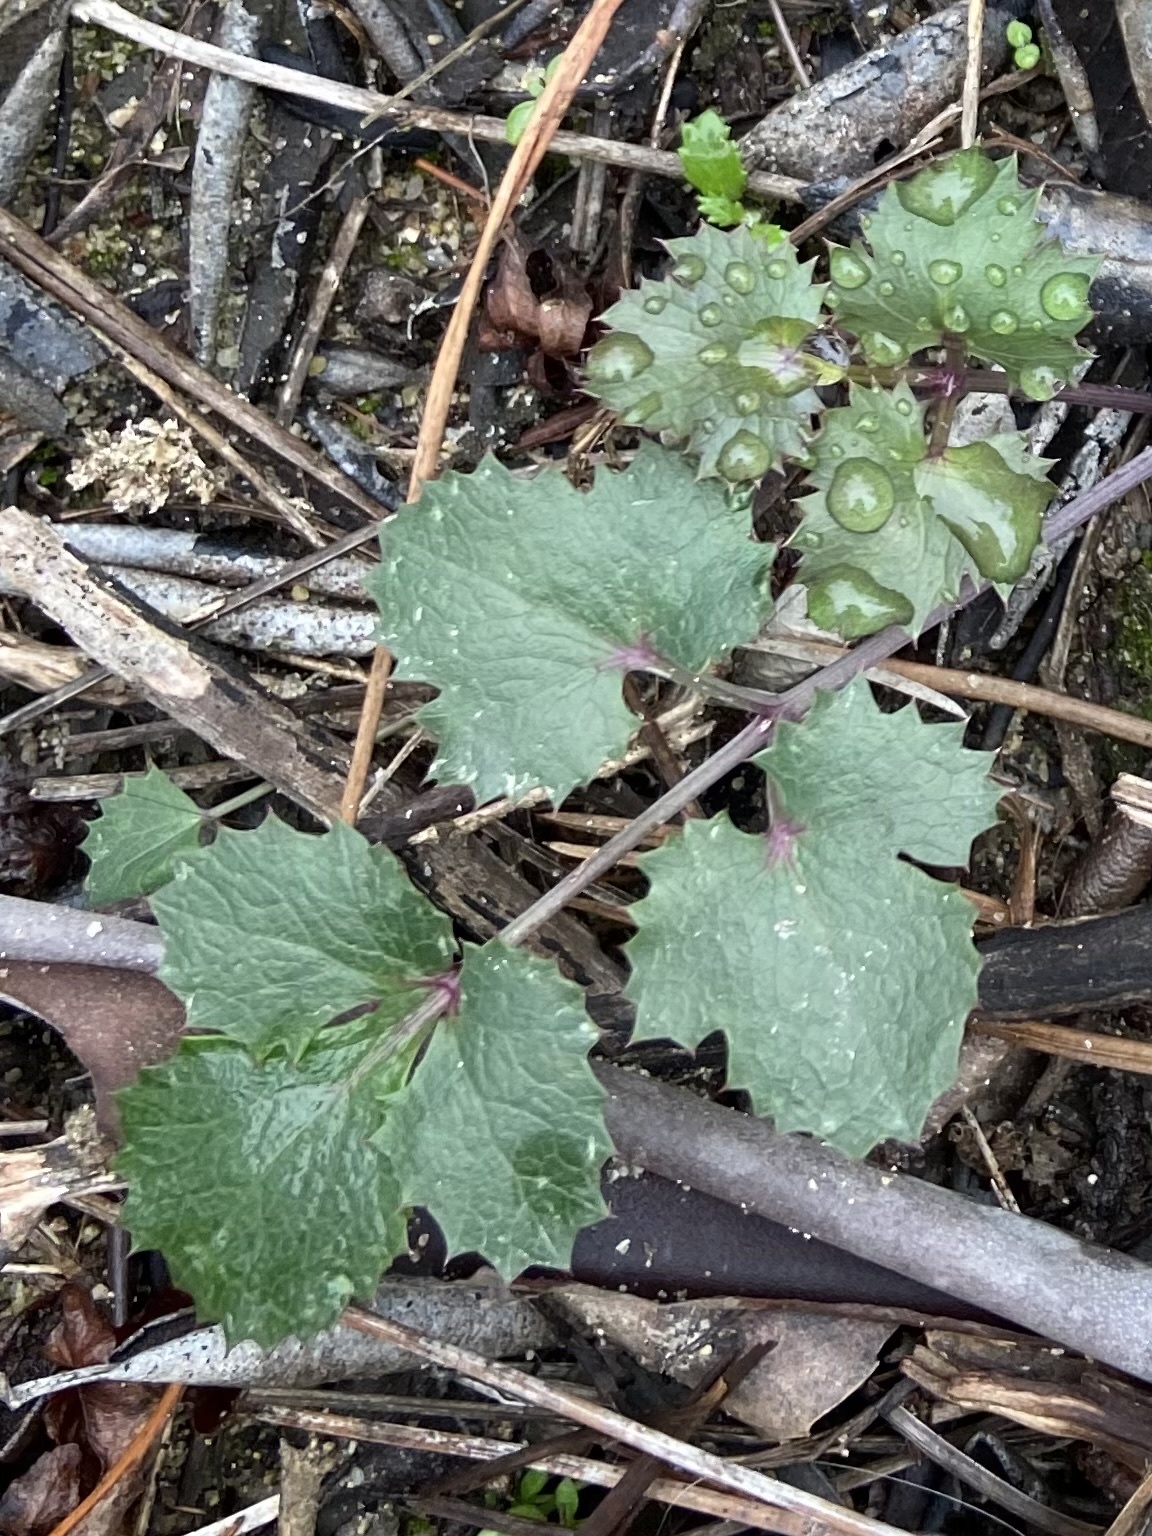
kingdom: Plantae
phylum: Tracheophyta
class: Magnoliopsida
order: Apiales
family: Apiaceae
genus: Lomatium
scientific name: Lomatium lucidum
